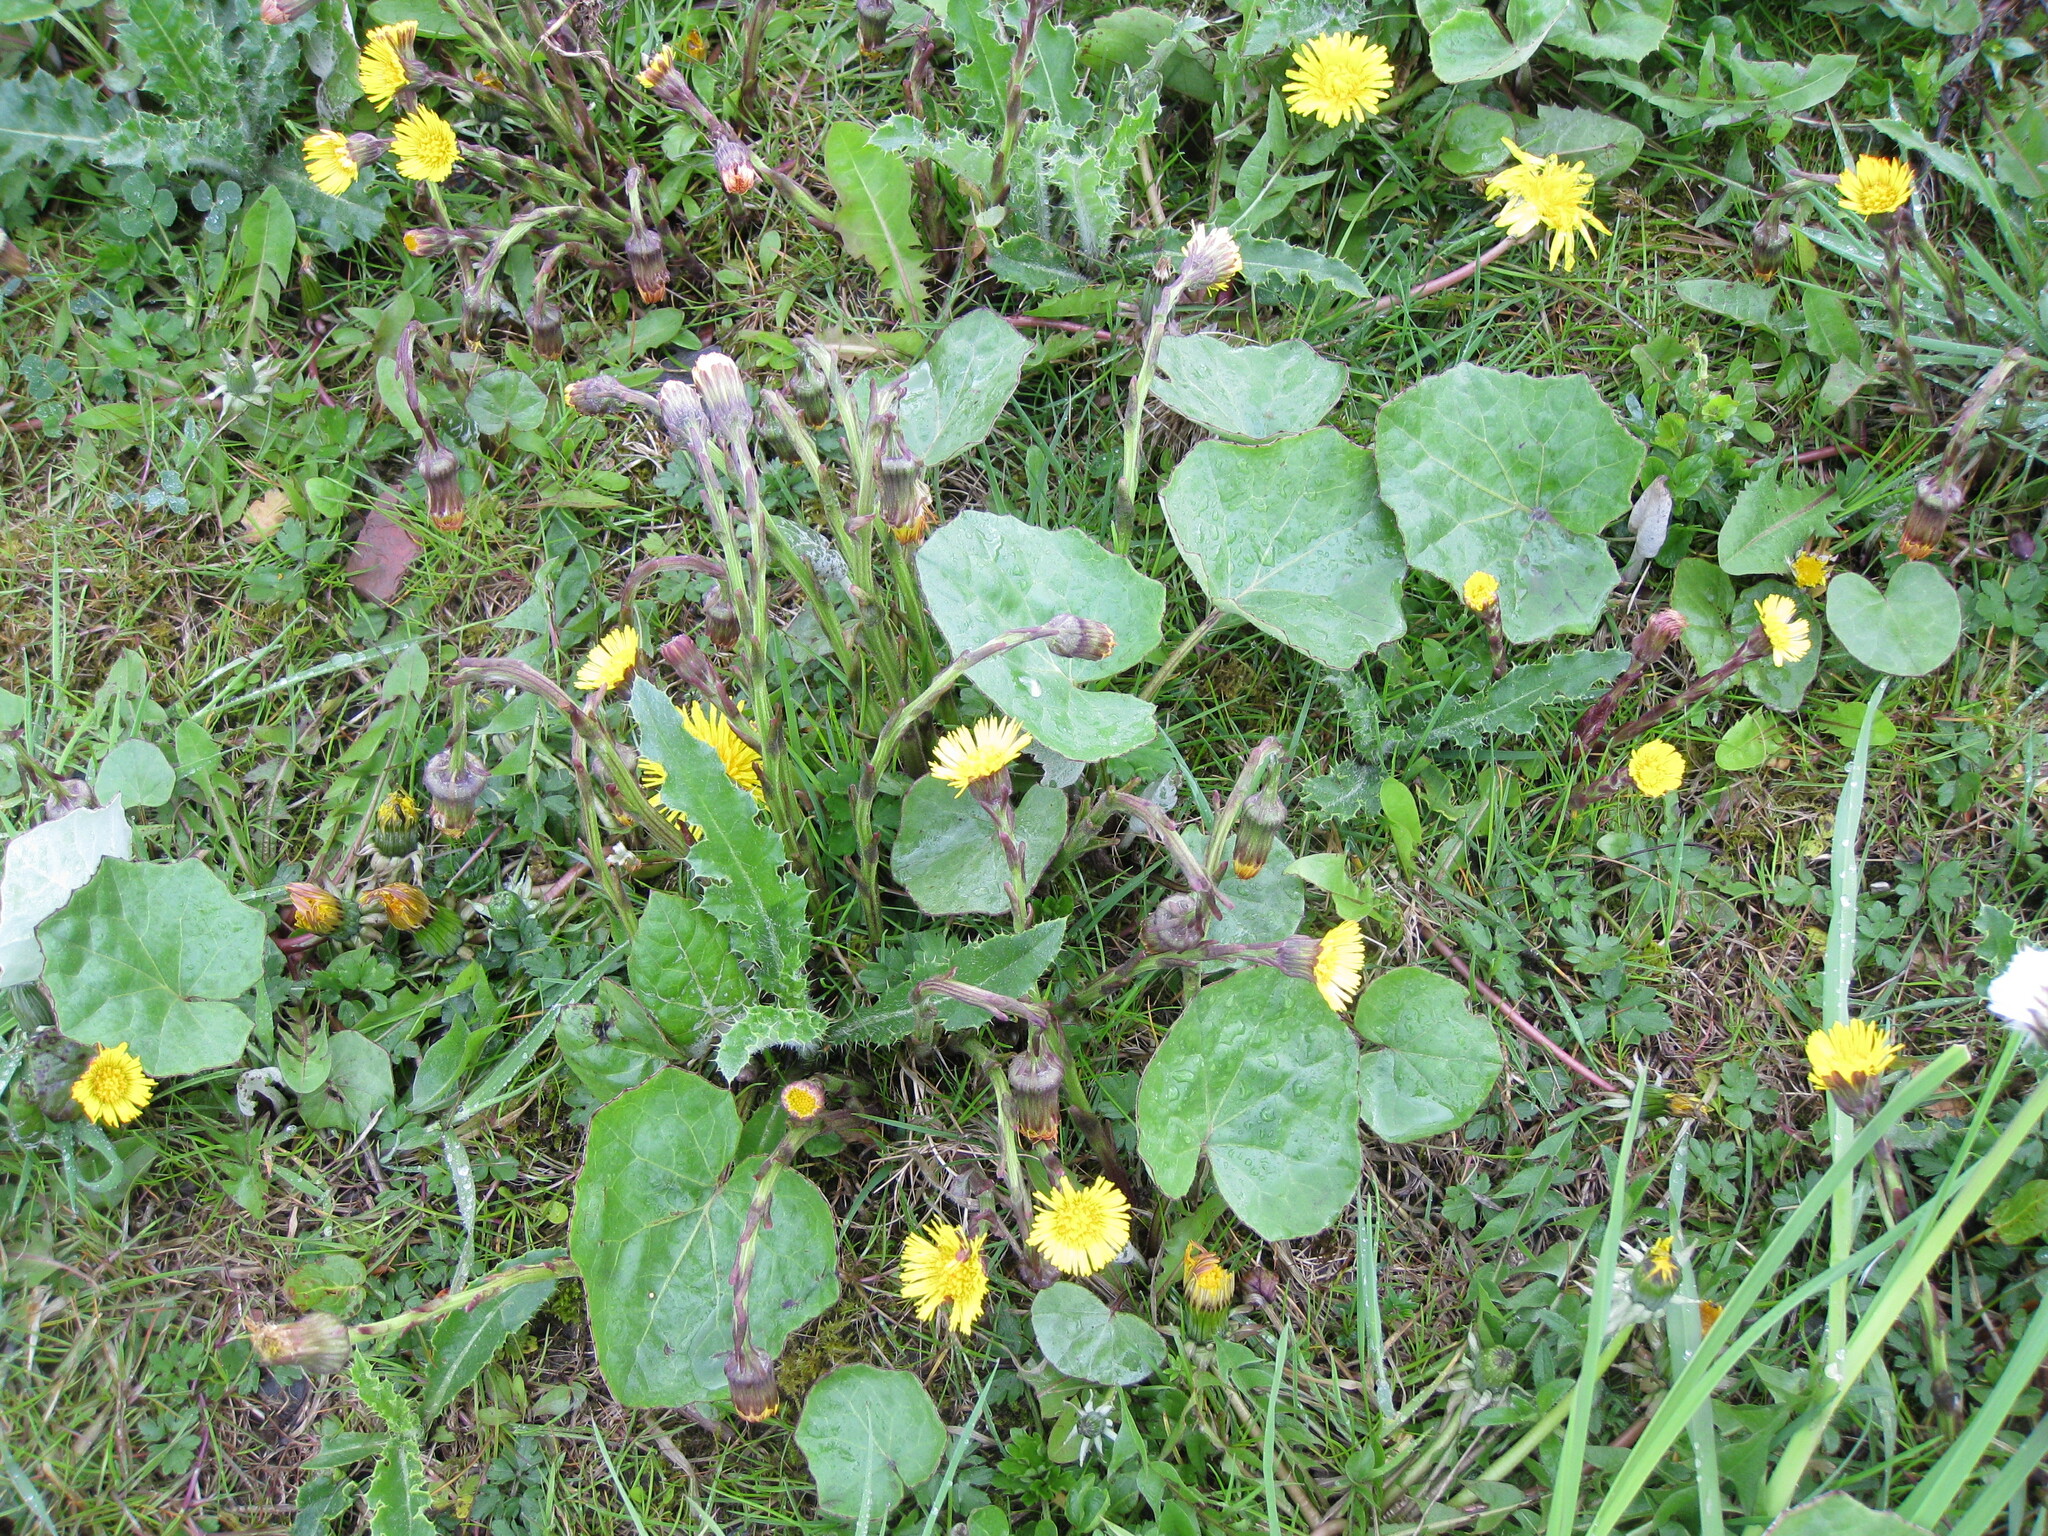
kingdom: Plantae
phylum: Tracheophyta
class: Magnoliopsida
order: Asterales
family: Asteraceae
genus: Tussilago
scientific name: Tussilago farfara
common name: Coltsfoot
